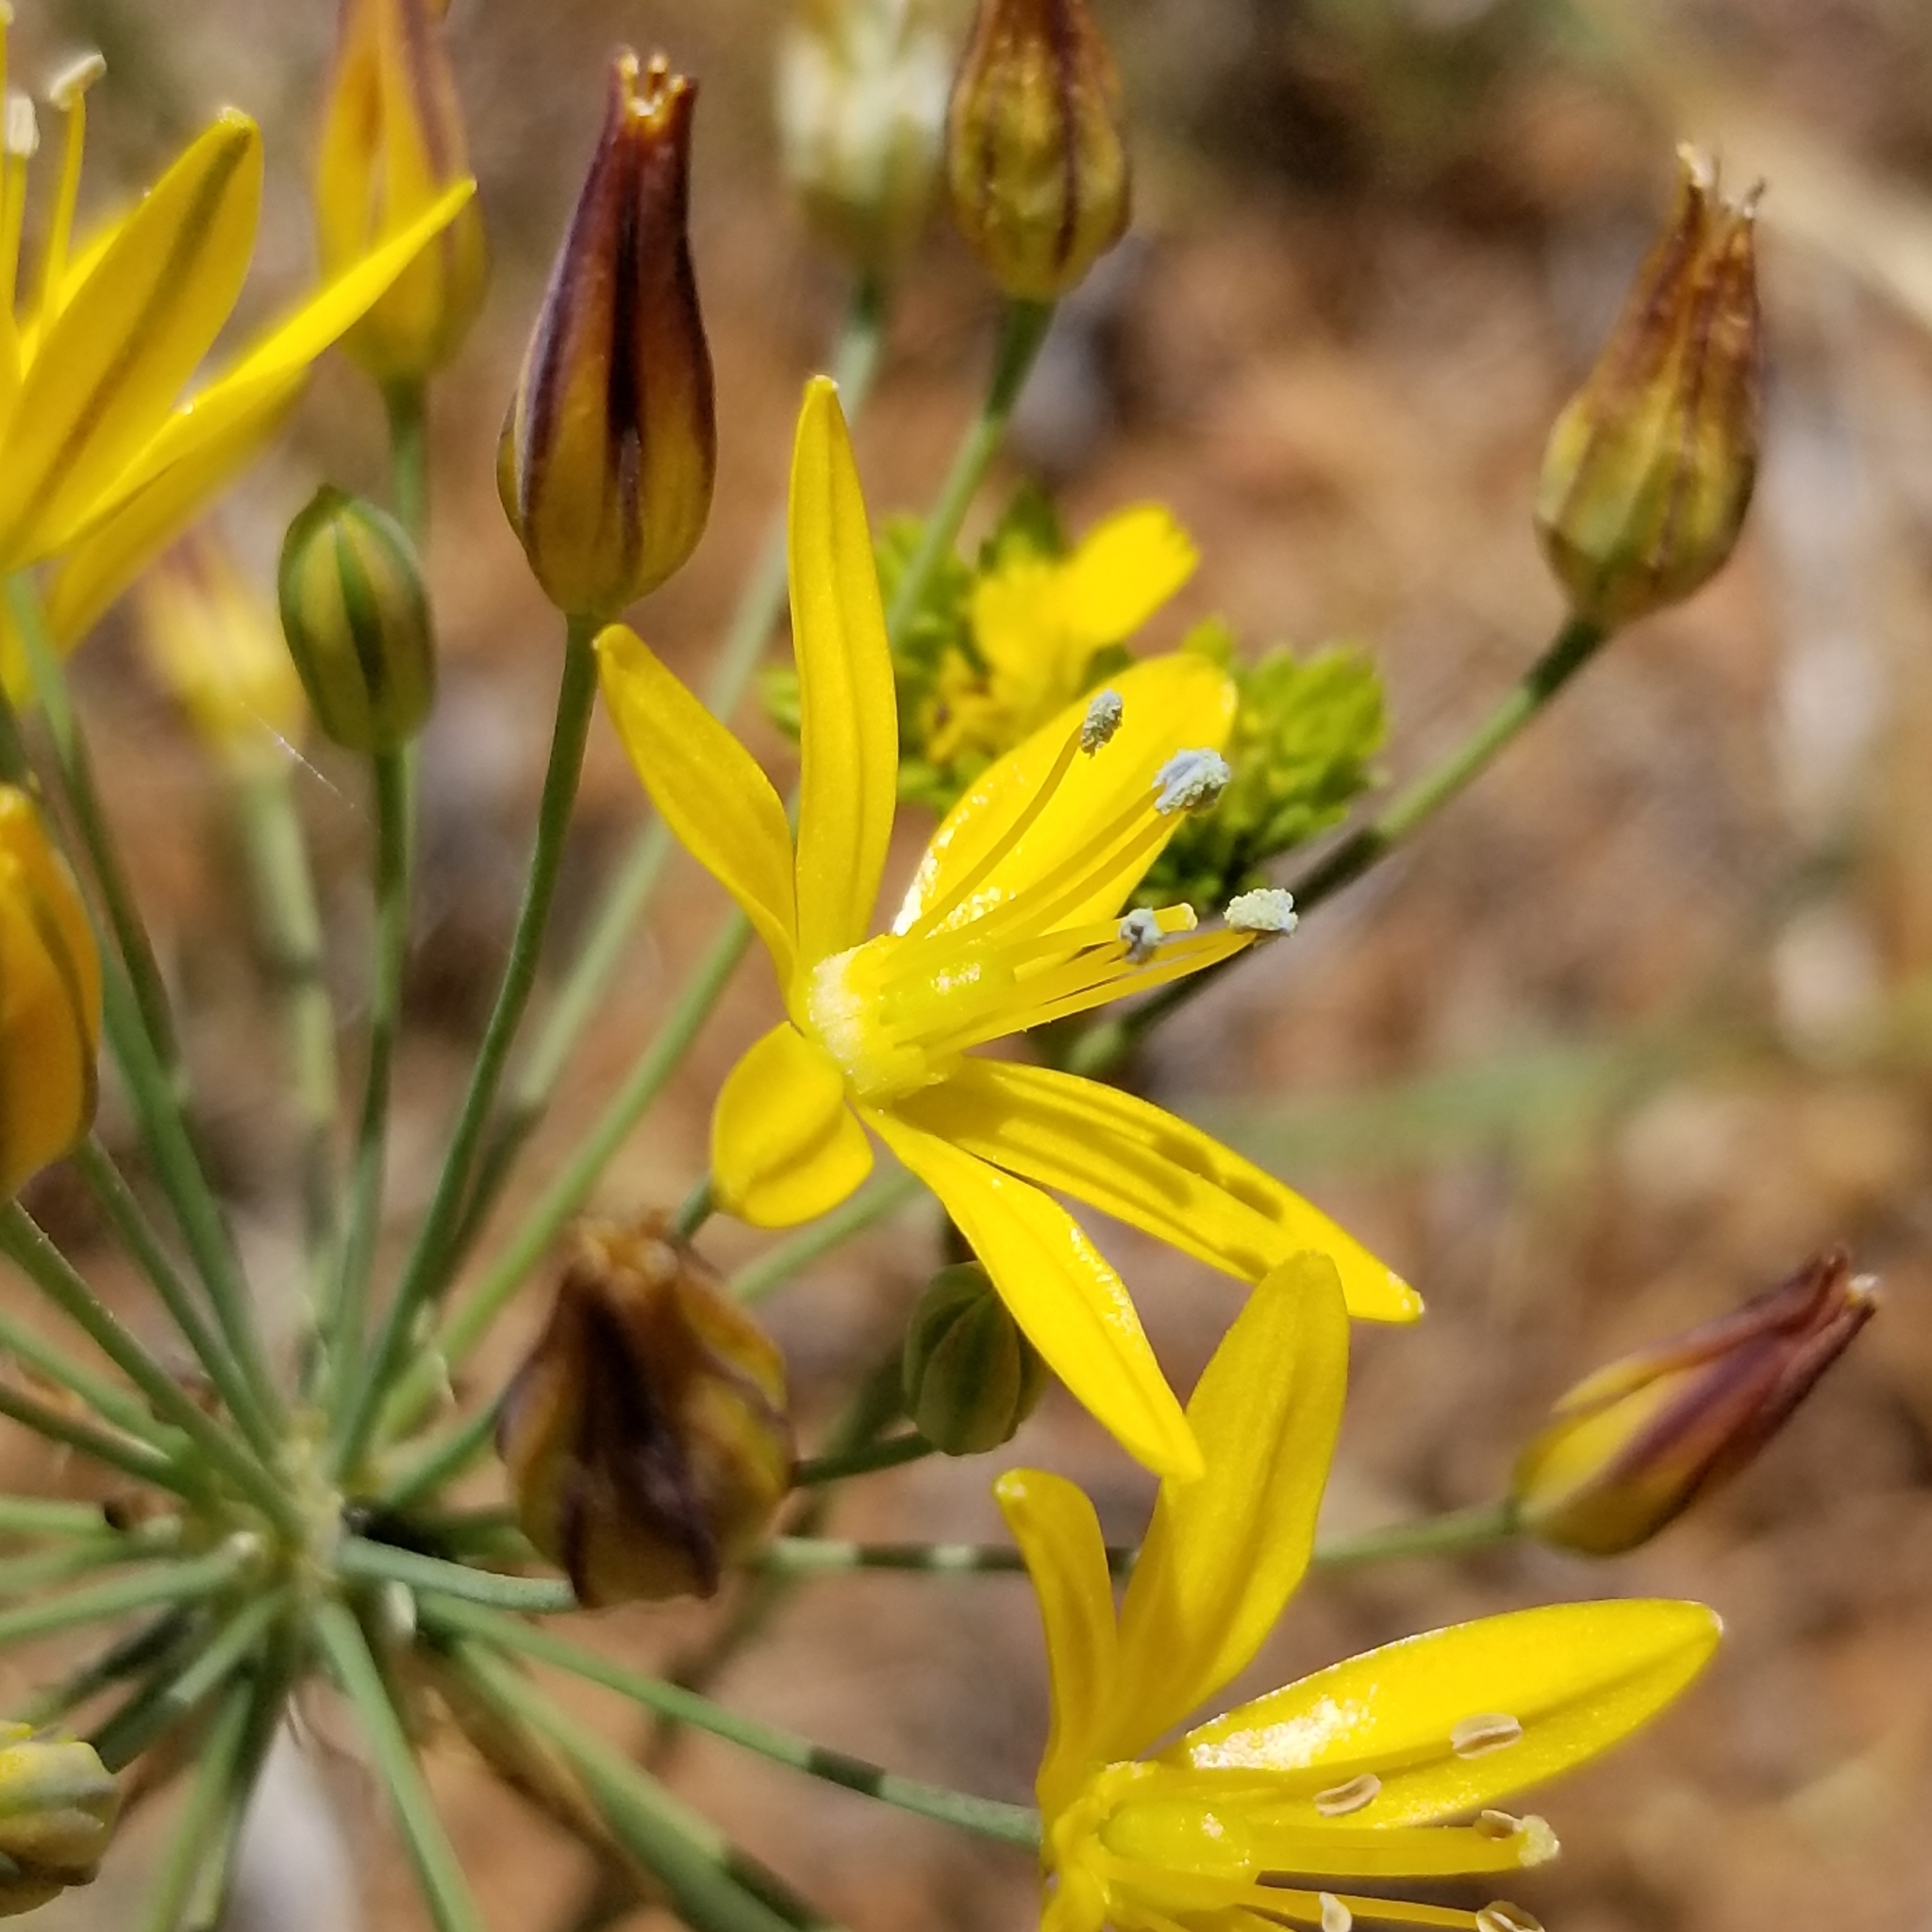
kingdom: Plantae
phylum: Tracheophyta
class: Liliopsida
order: Asparagales
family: Asparagaceae
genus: Bloomeria
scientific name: Bloomeria crocea
